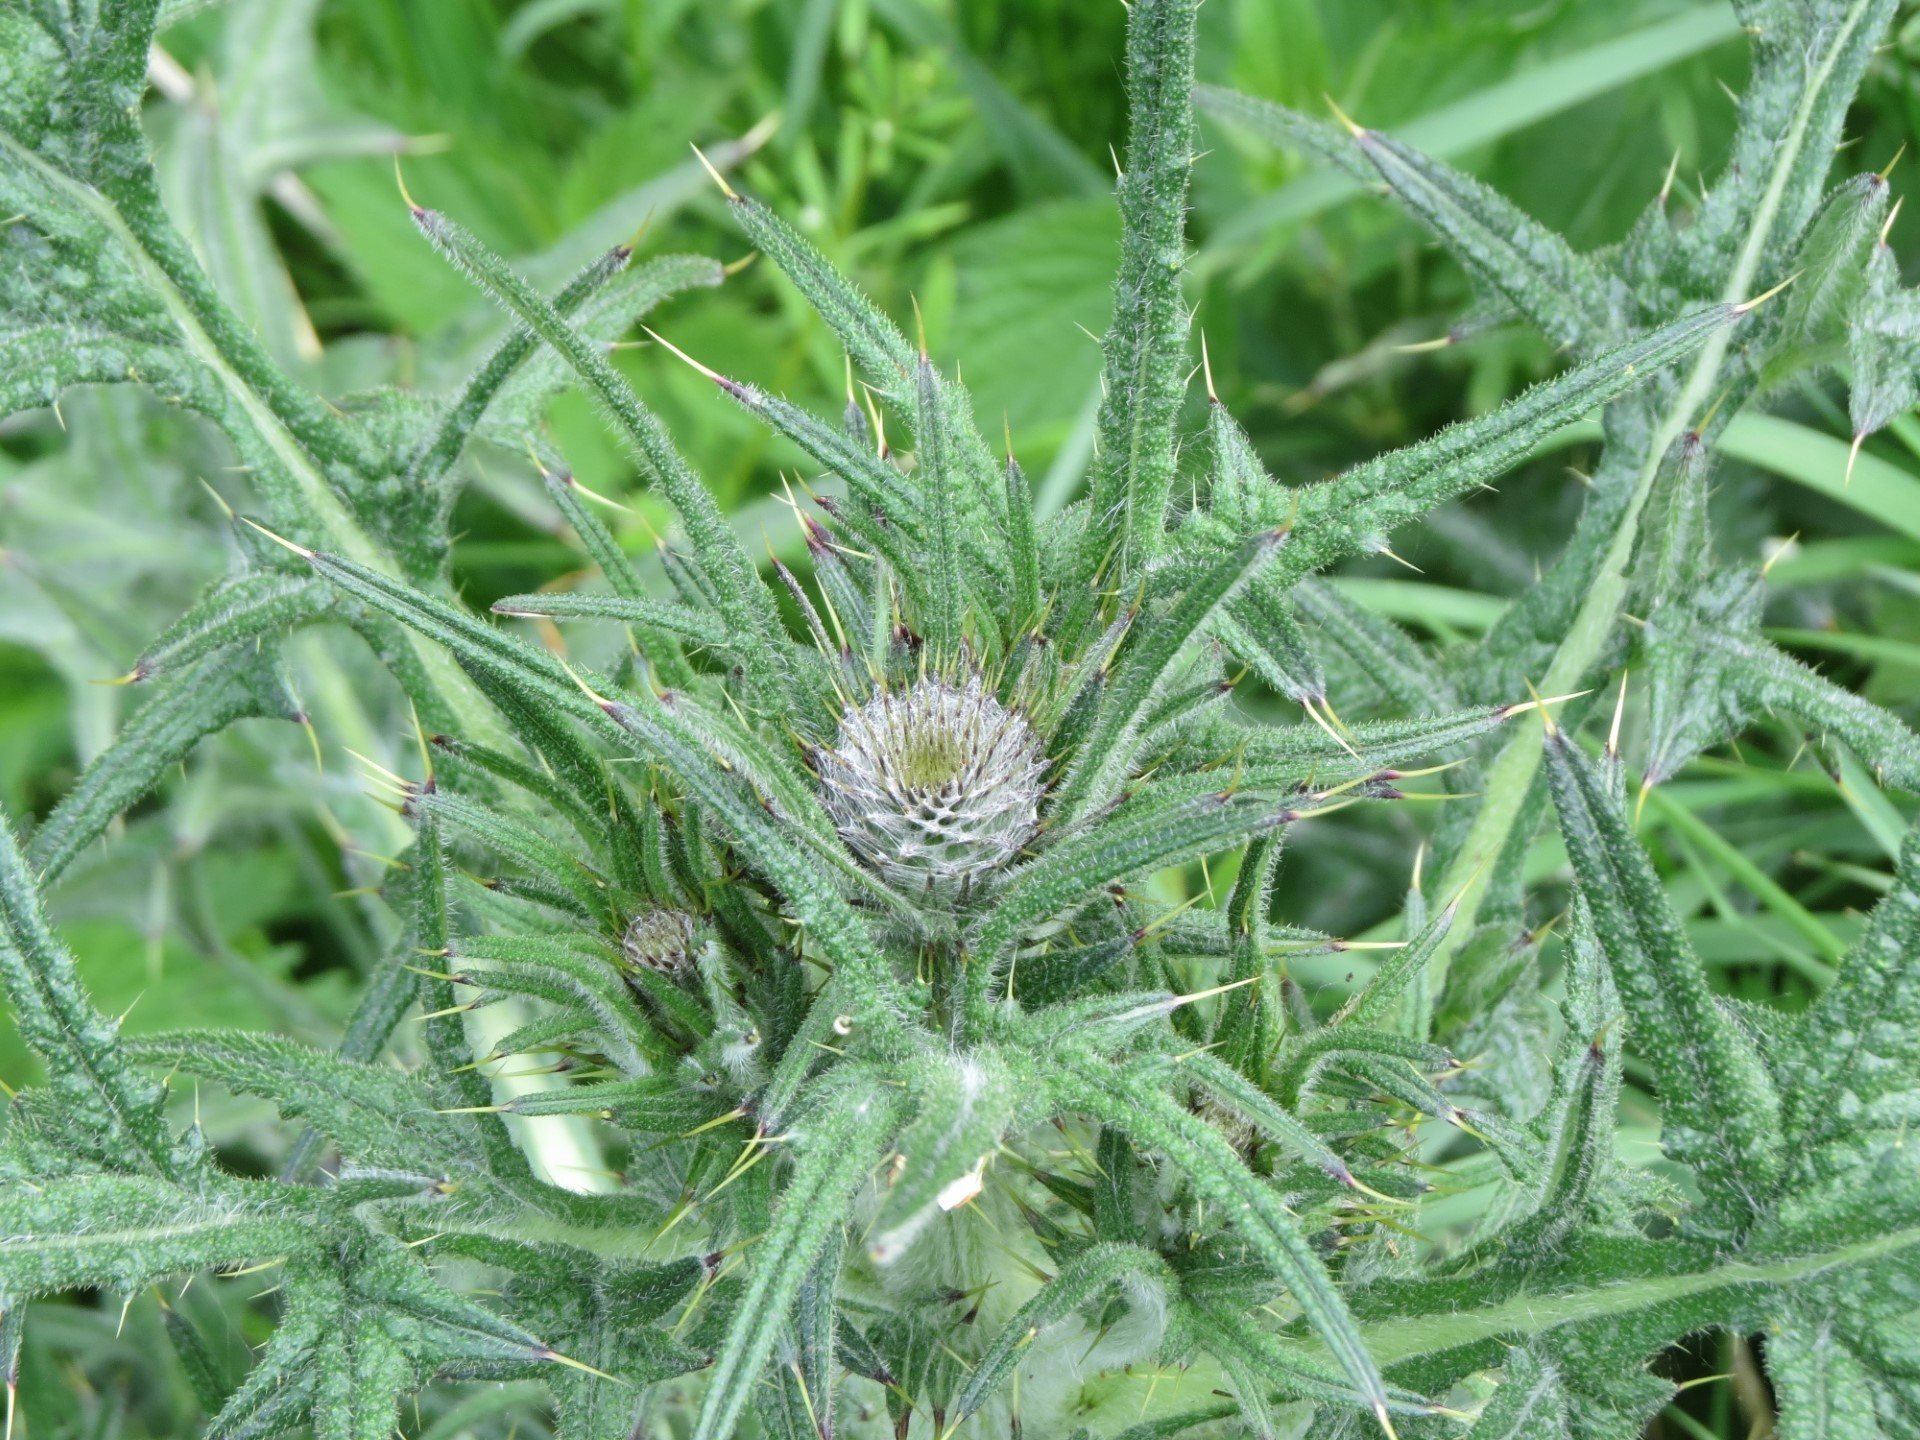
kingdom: Plantae
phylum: Tracheophyta
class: Magnoliopsida
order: Asterales
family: Asteraceae
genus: Cirsium
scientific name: Cirsium vulgare
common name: Bull thistle
